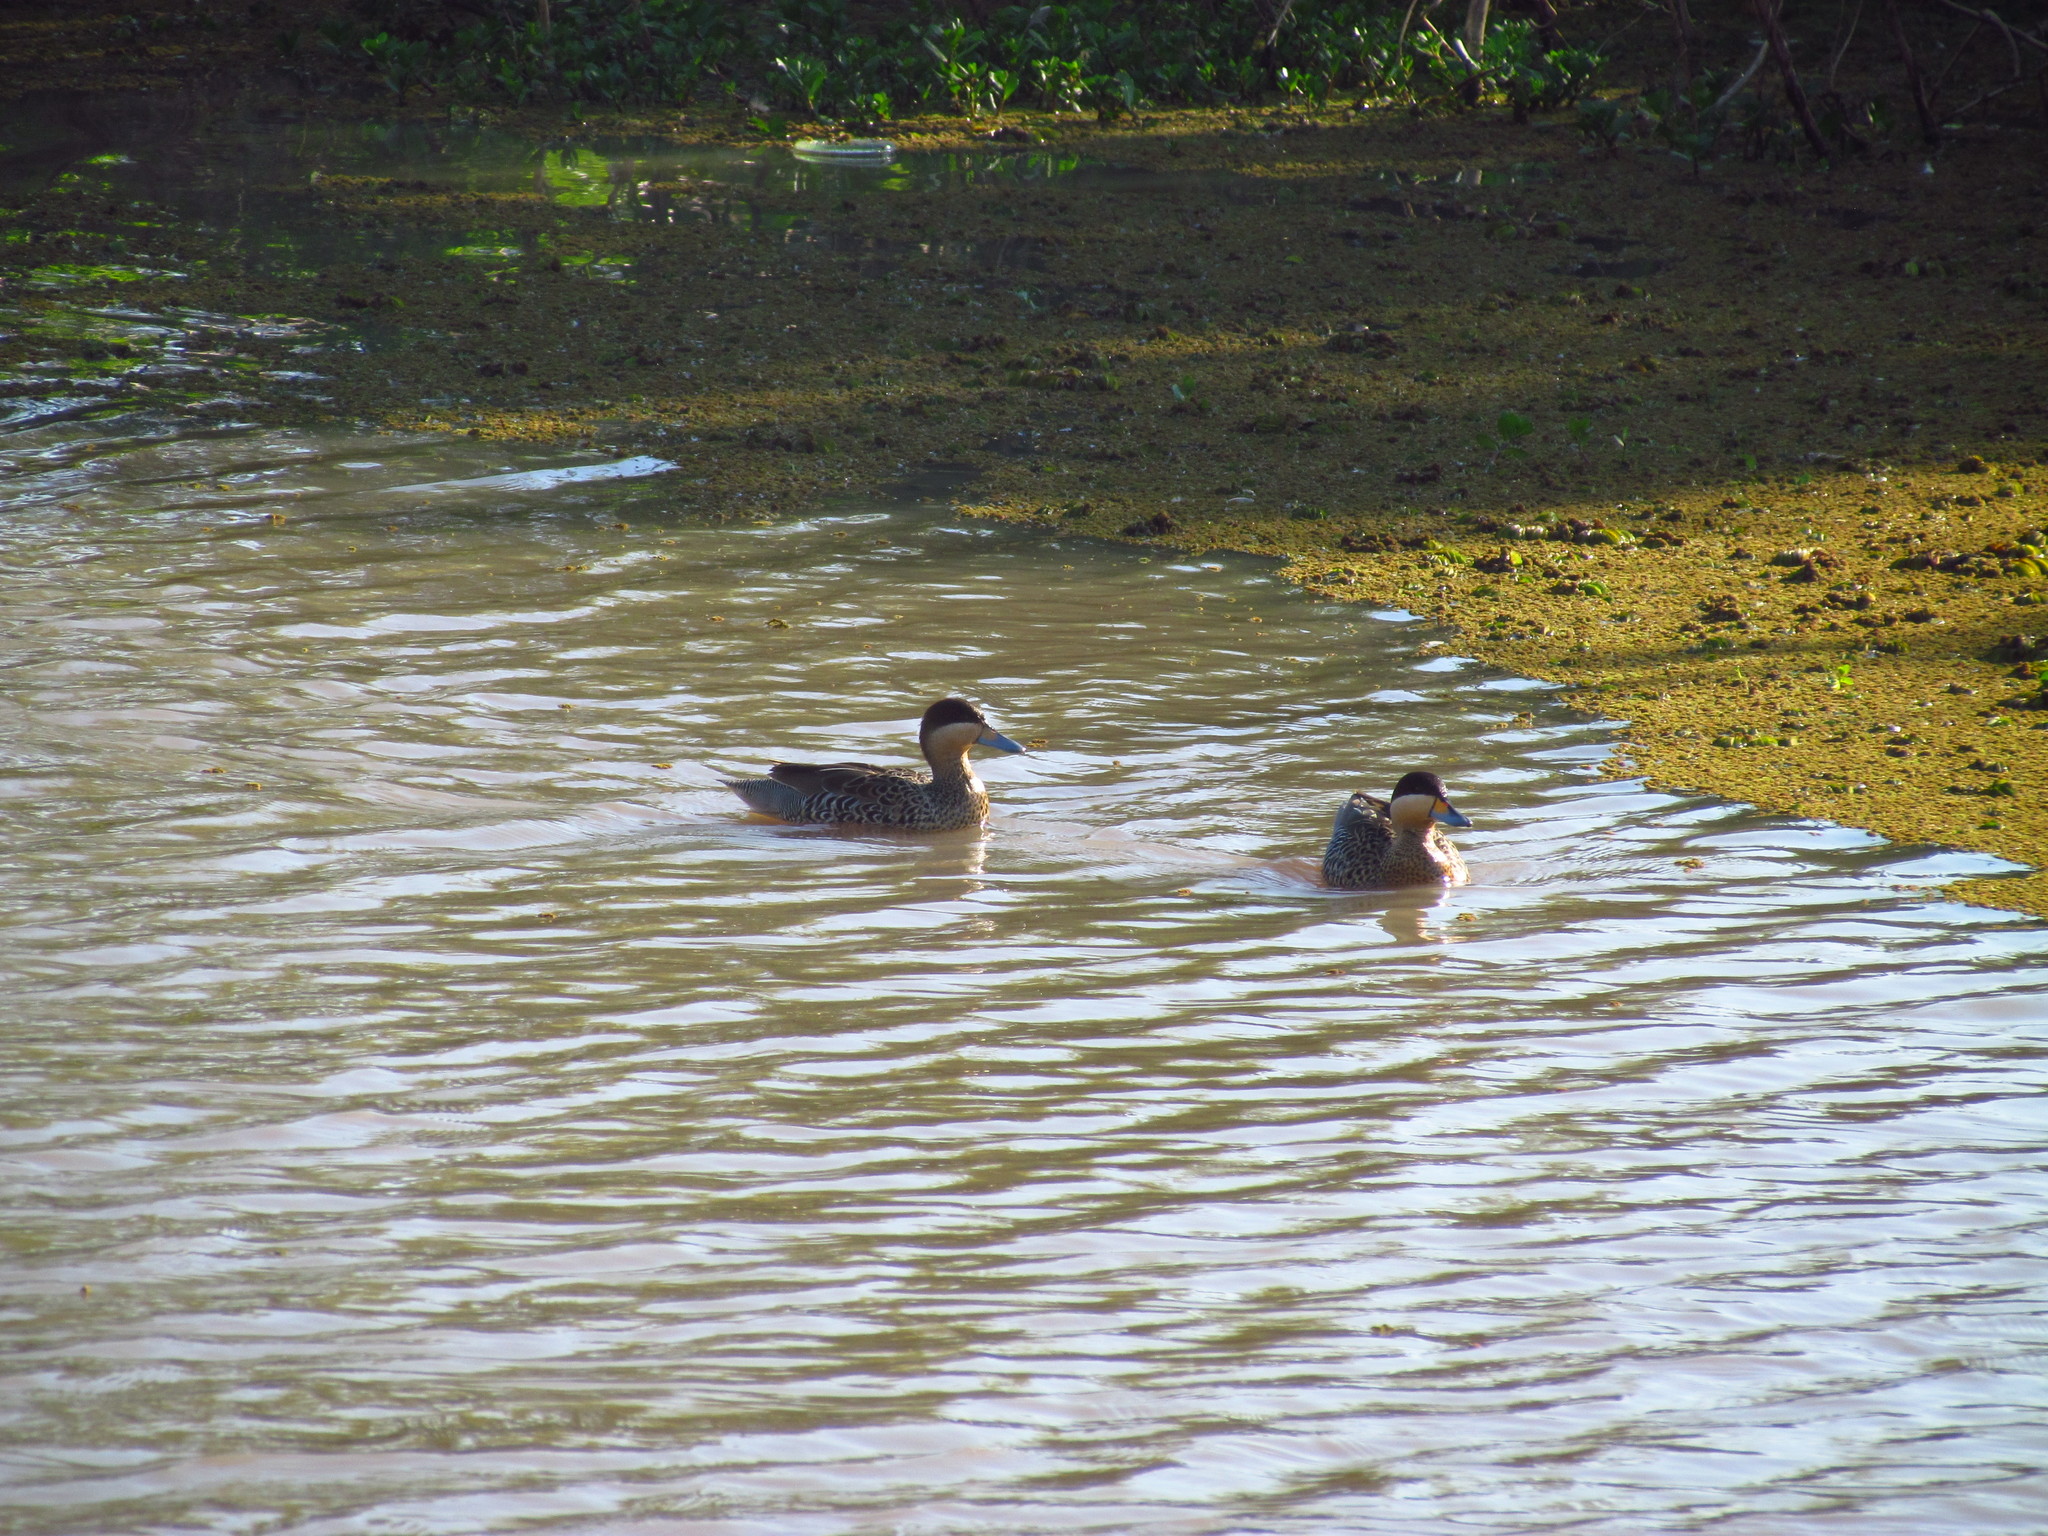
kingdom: Animalia
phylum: Chordata
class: Aves
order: Anseriformes
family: Anatidae
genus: Spatula
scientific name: Spatula versicolor
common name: Silver teal
